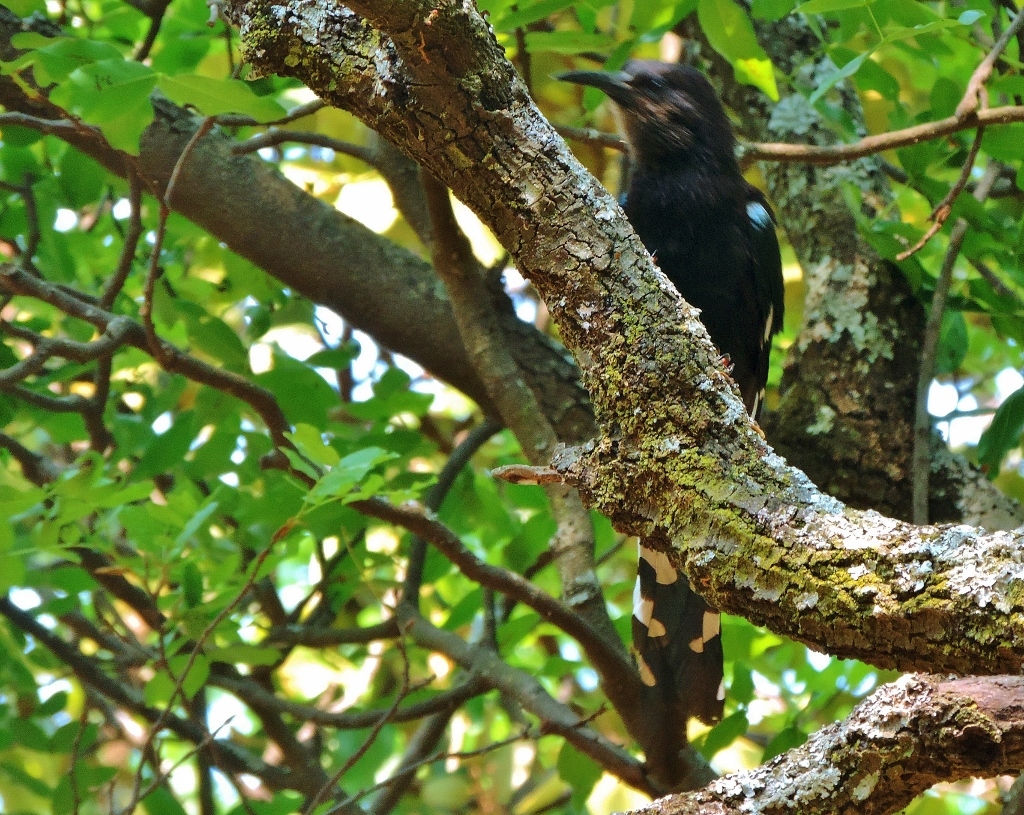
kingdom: Animalia
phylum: Chordata
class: Aves
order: Bucerotiformes
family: Phoeniculidae
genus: Phoeniculus
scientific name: Phoeniculus purpureus
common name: Green woodhoopoe
